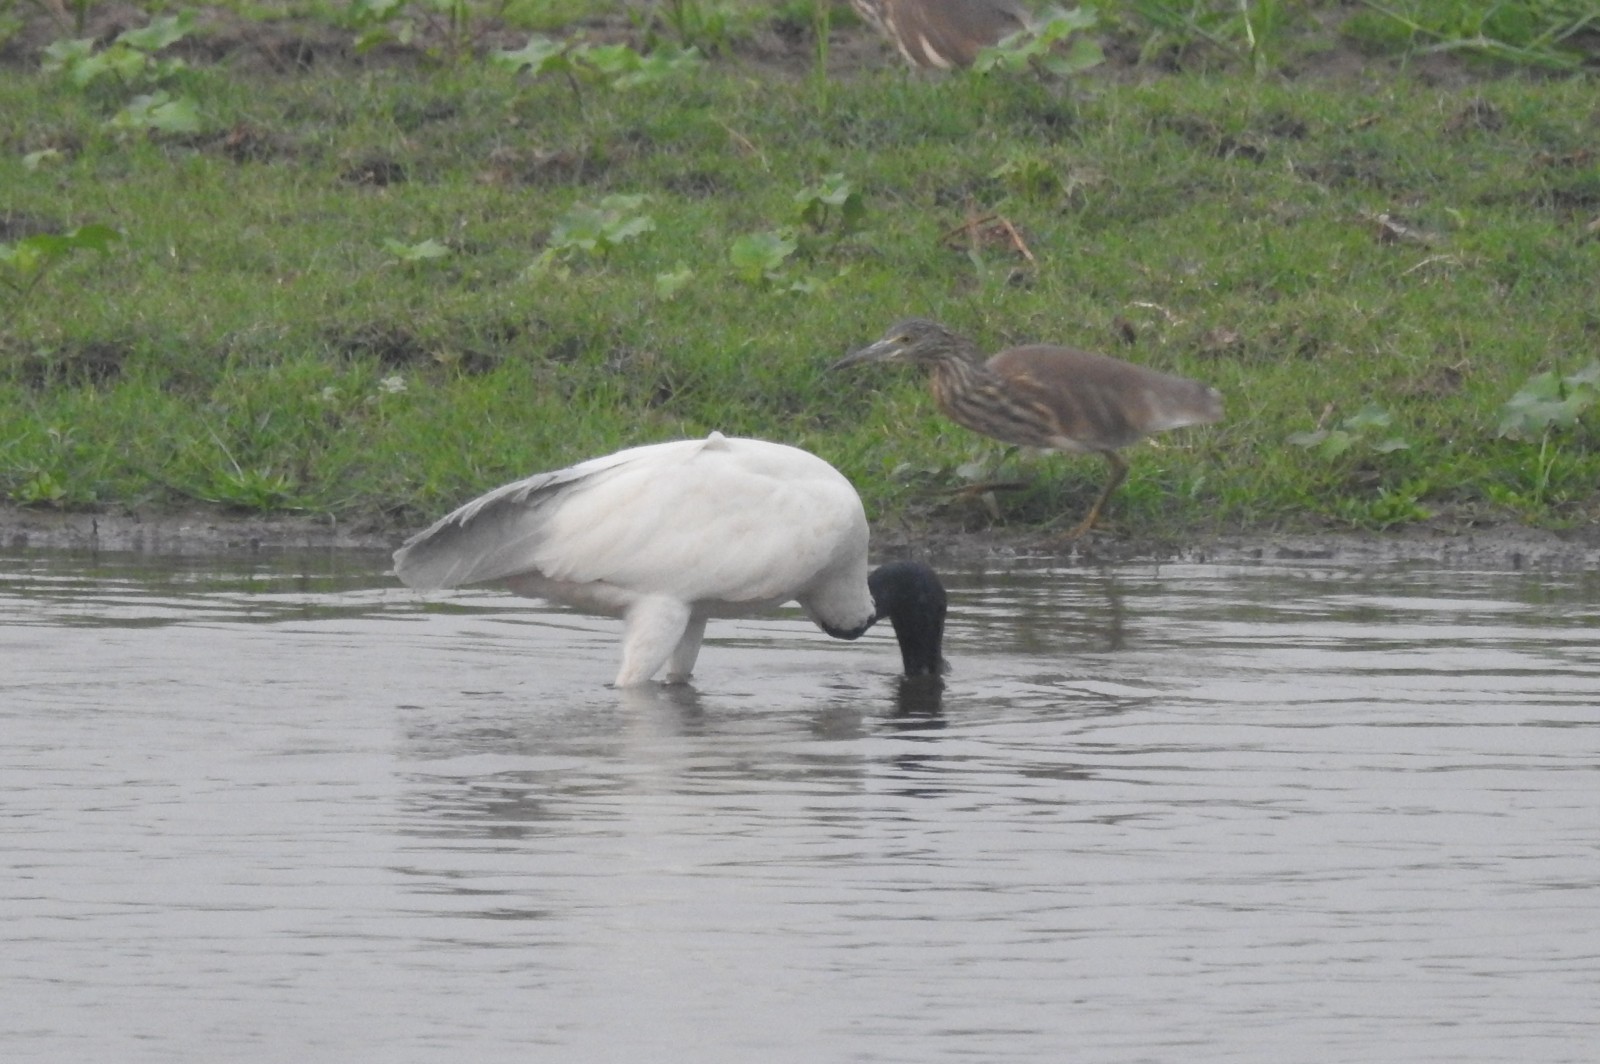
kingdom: Animalia
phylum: Chordata
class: Aves
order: Pelecaniformes
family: Threskiornithidae
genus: Threskiornis
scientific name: Threskiornis melanocephalus
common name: Black-headed ibis
